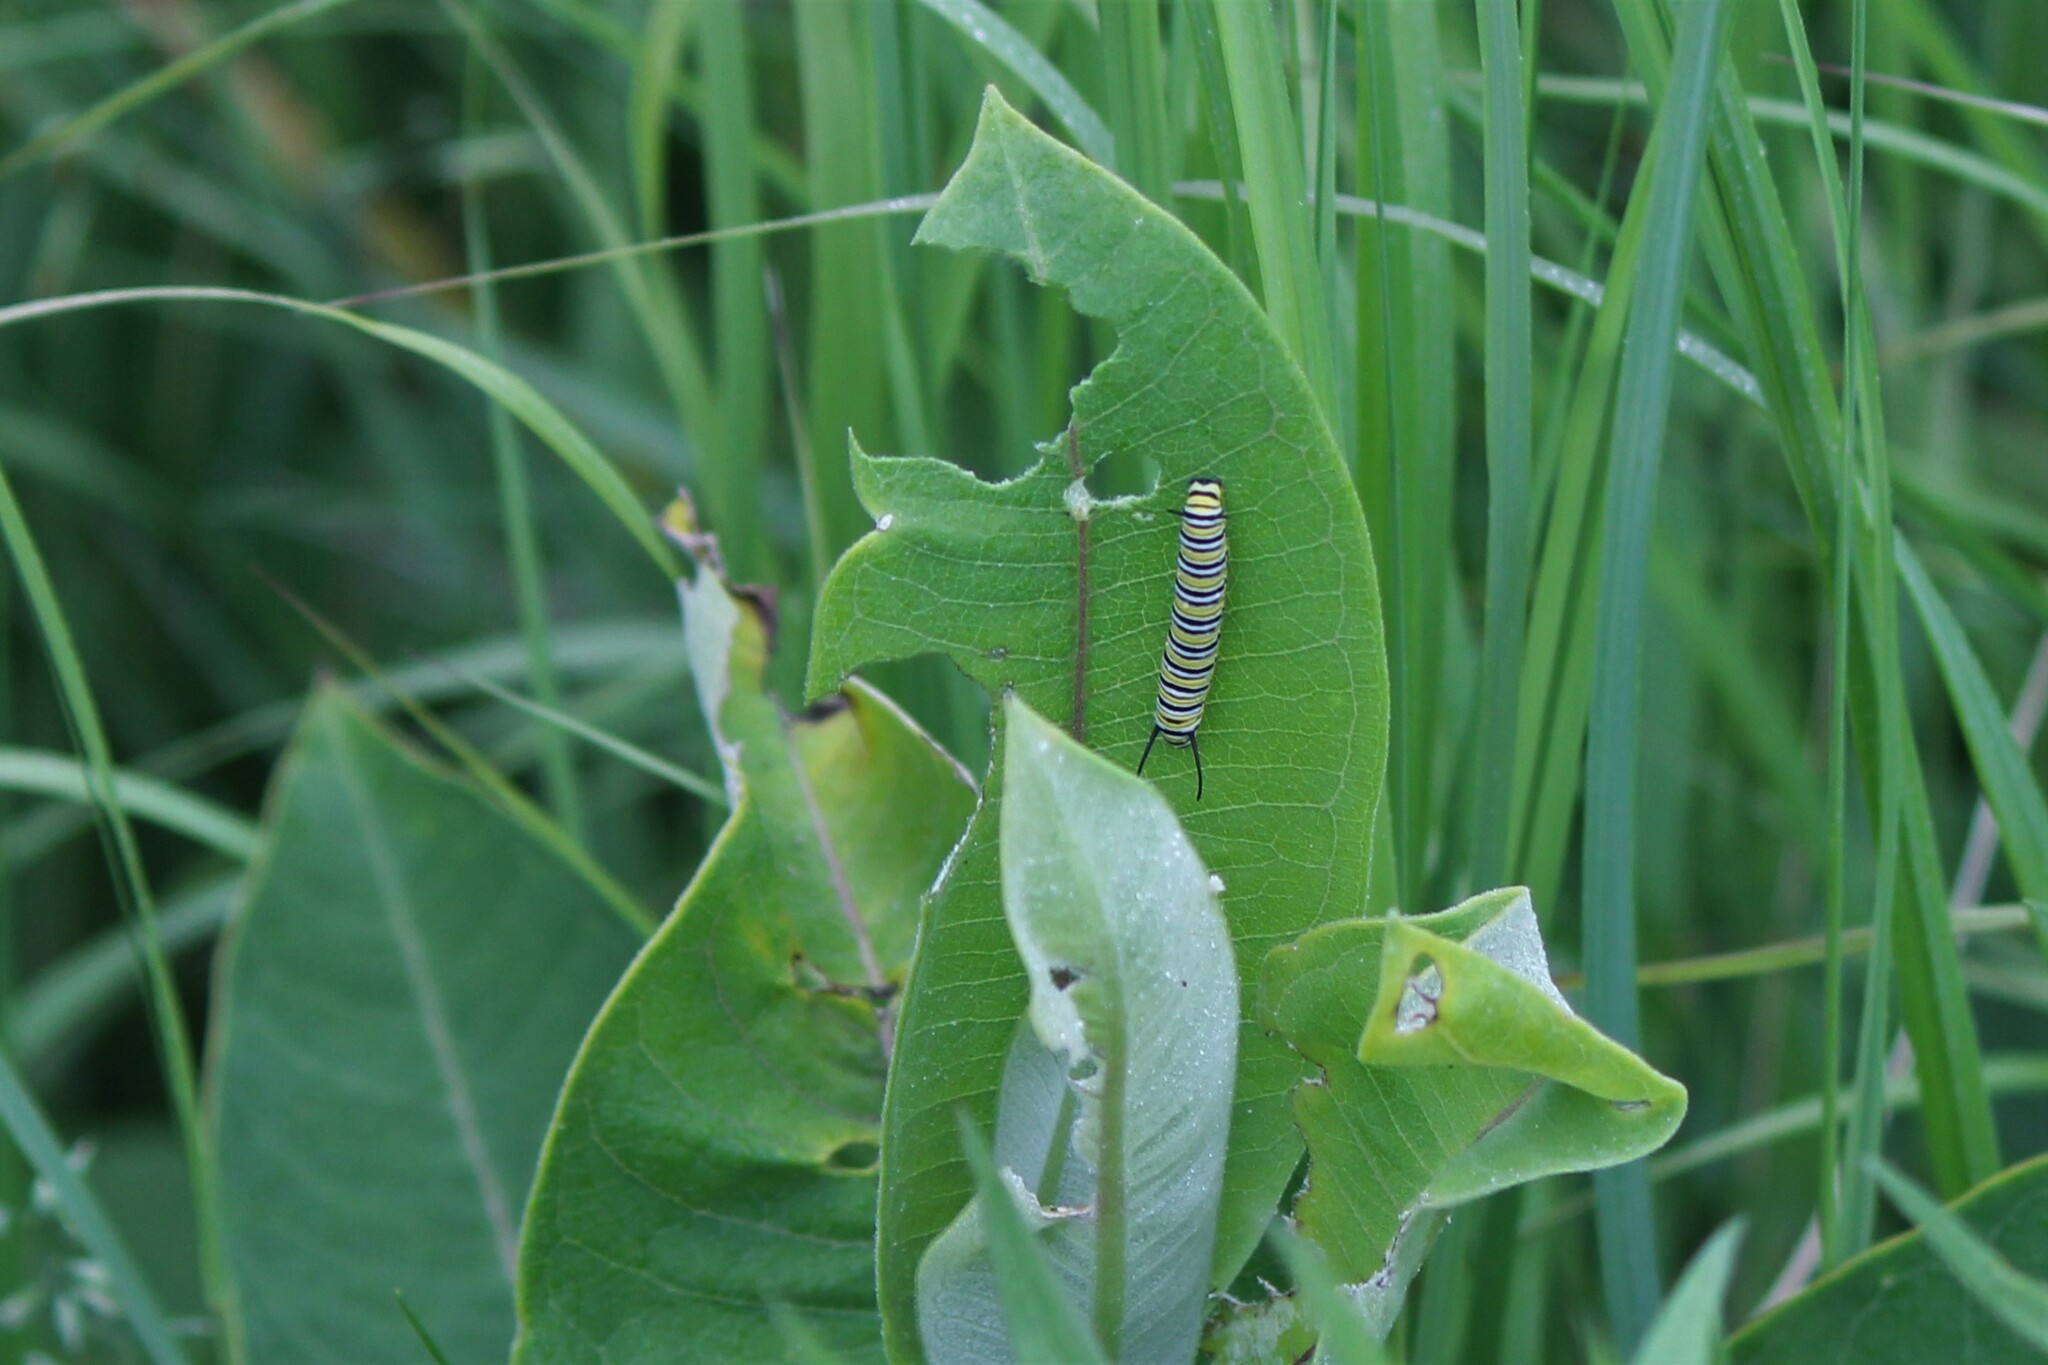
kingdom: Animalia
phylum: Arthropoda
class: Insecta
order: Lepidoptera
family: Nymphalidae
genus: Danaus
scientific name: Danaus plexippus
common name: Monarch
